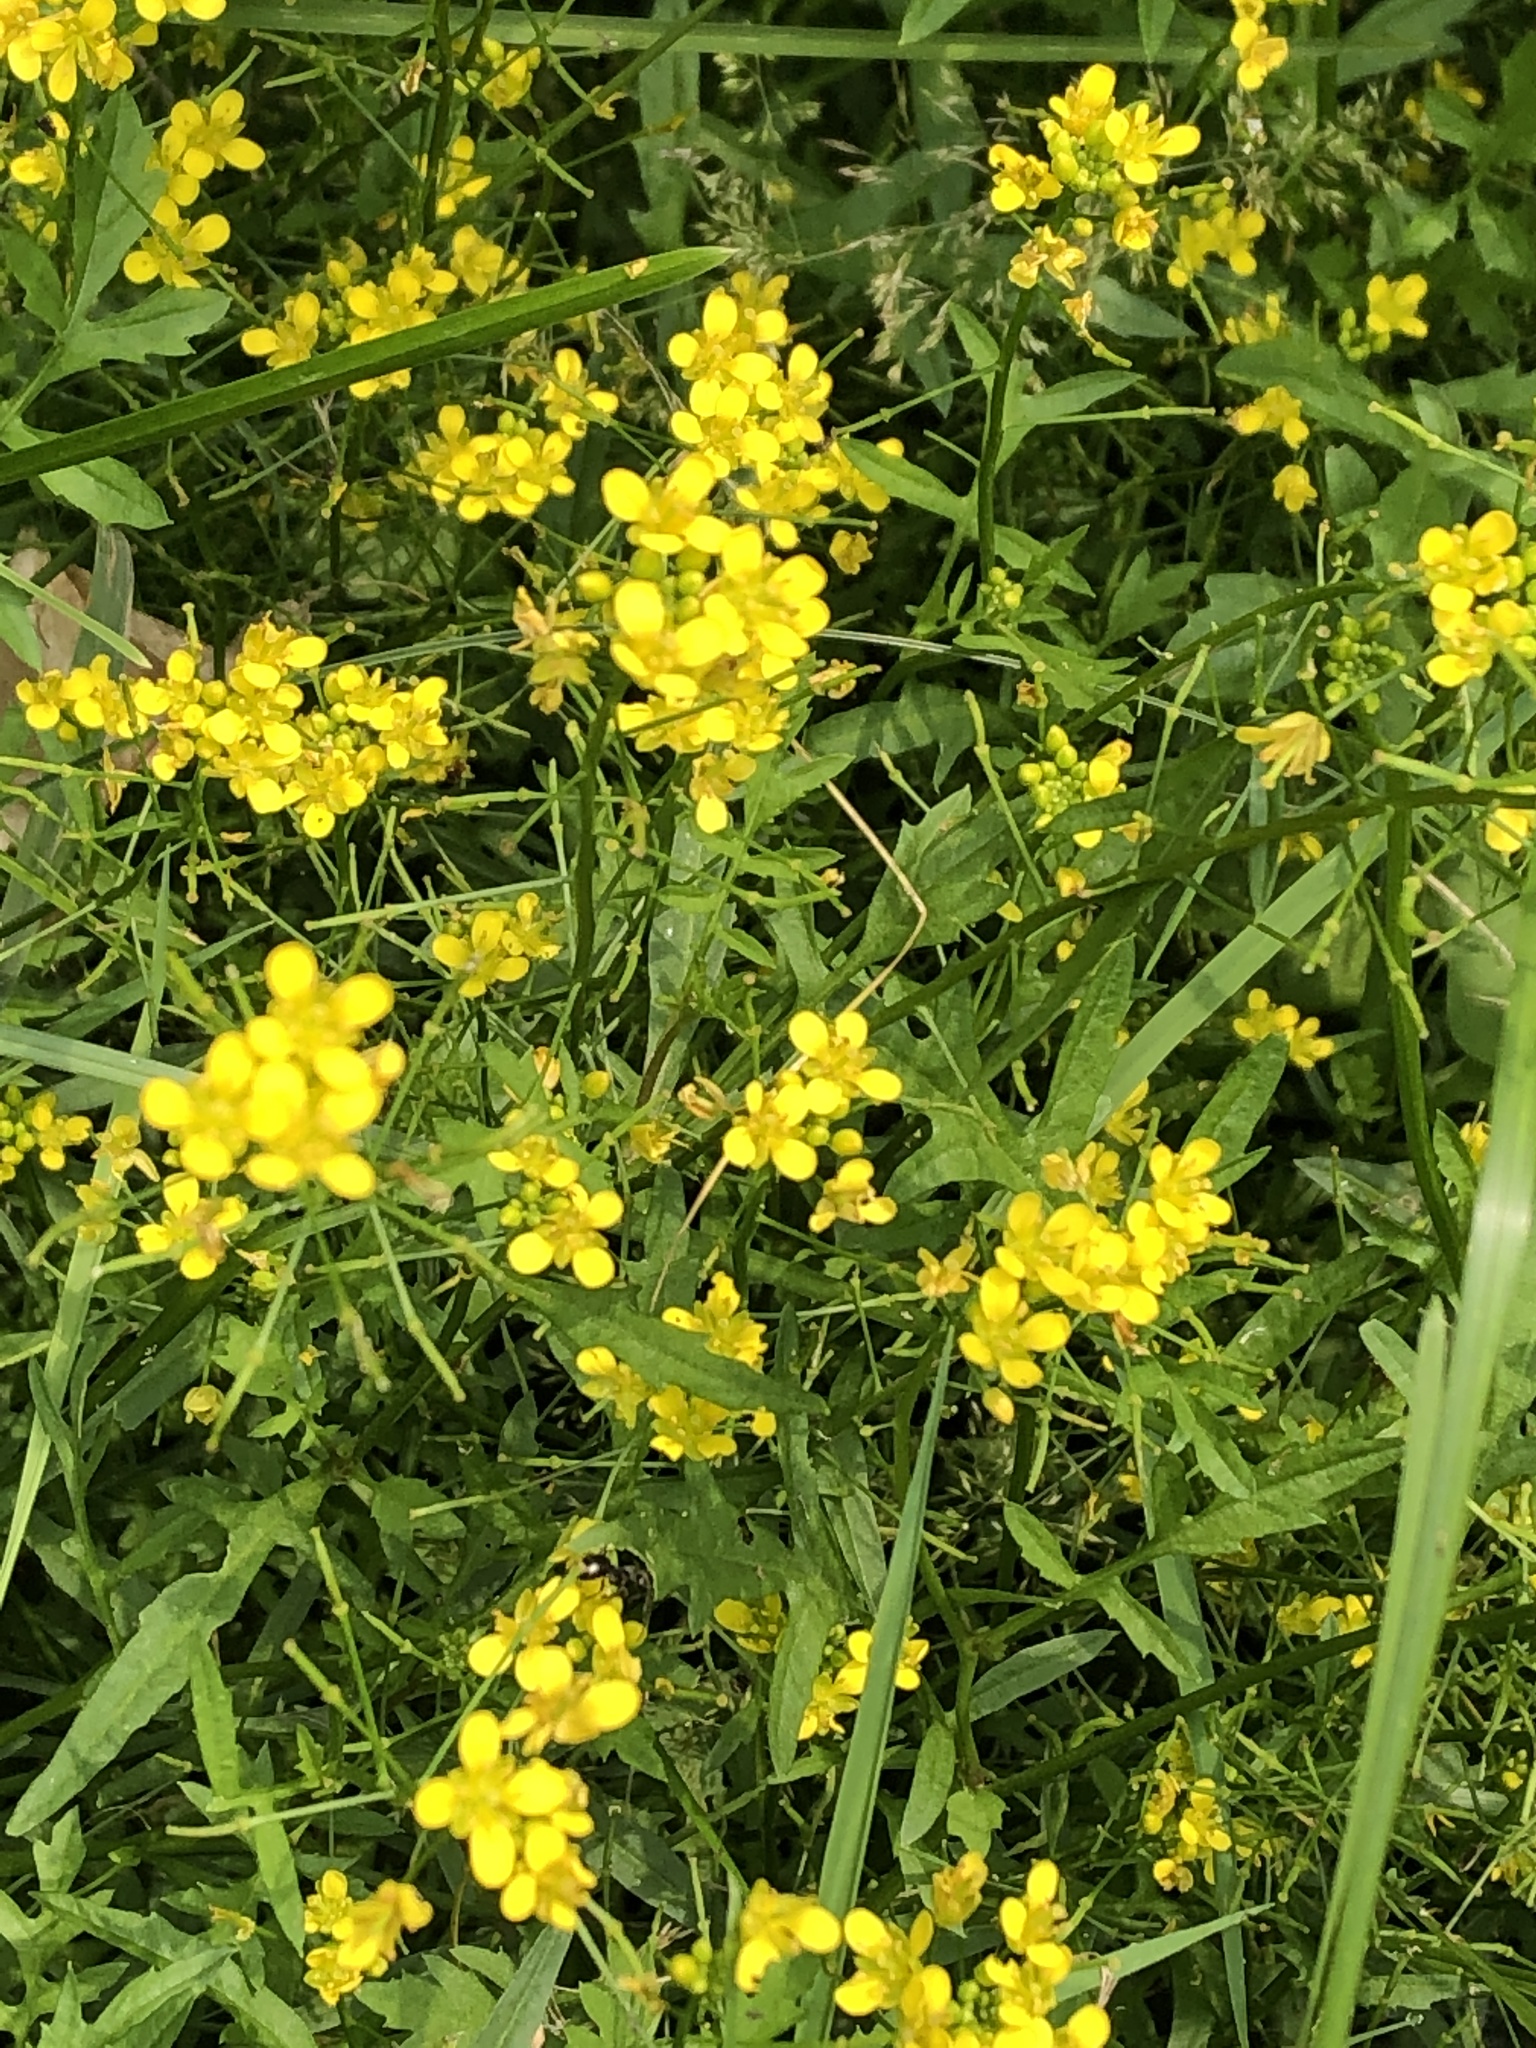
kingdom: Plantae
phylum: Tracheophyta
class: Magnoliopsida
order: Brassicales
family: Brassicaceae
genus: Rorippa
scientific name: Rorippa sylvestris
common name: Creeping yellowcress
